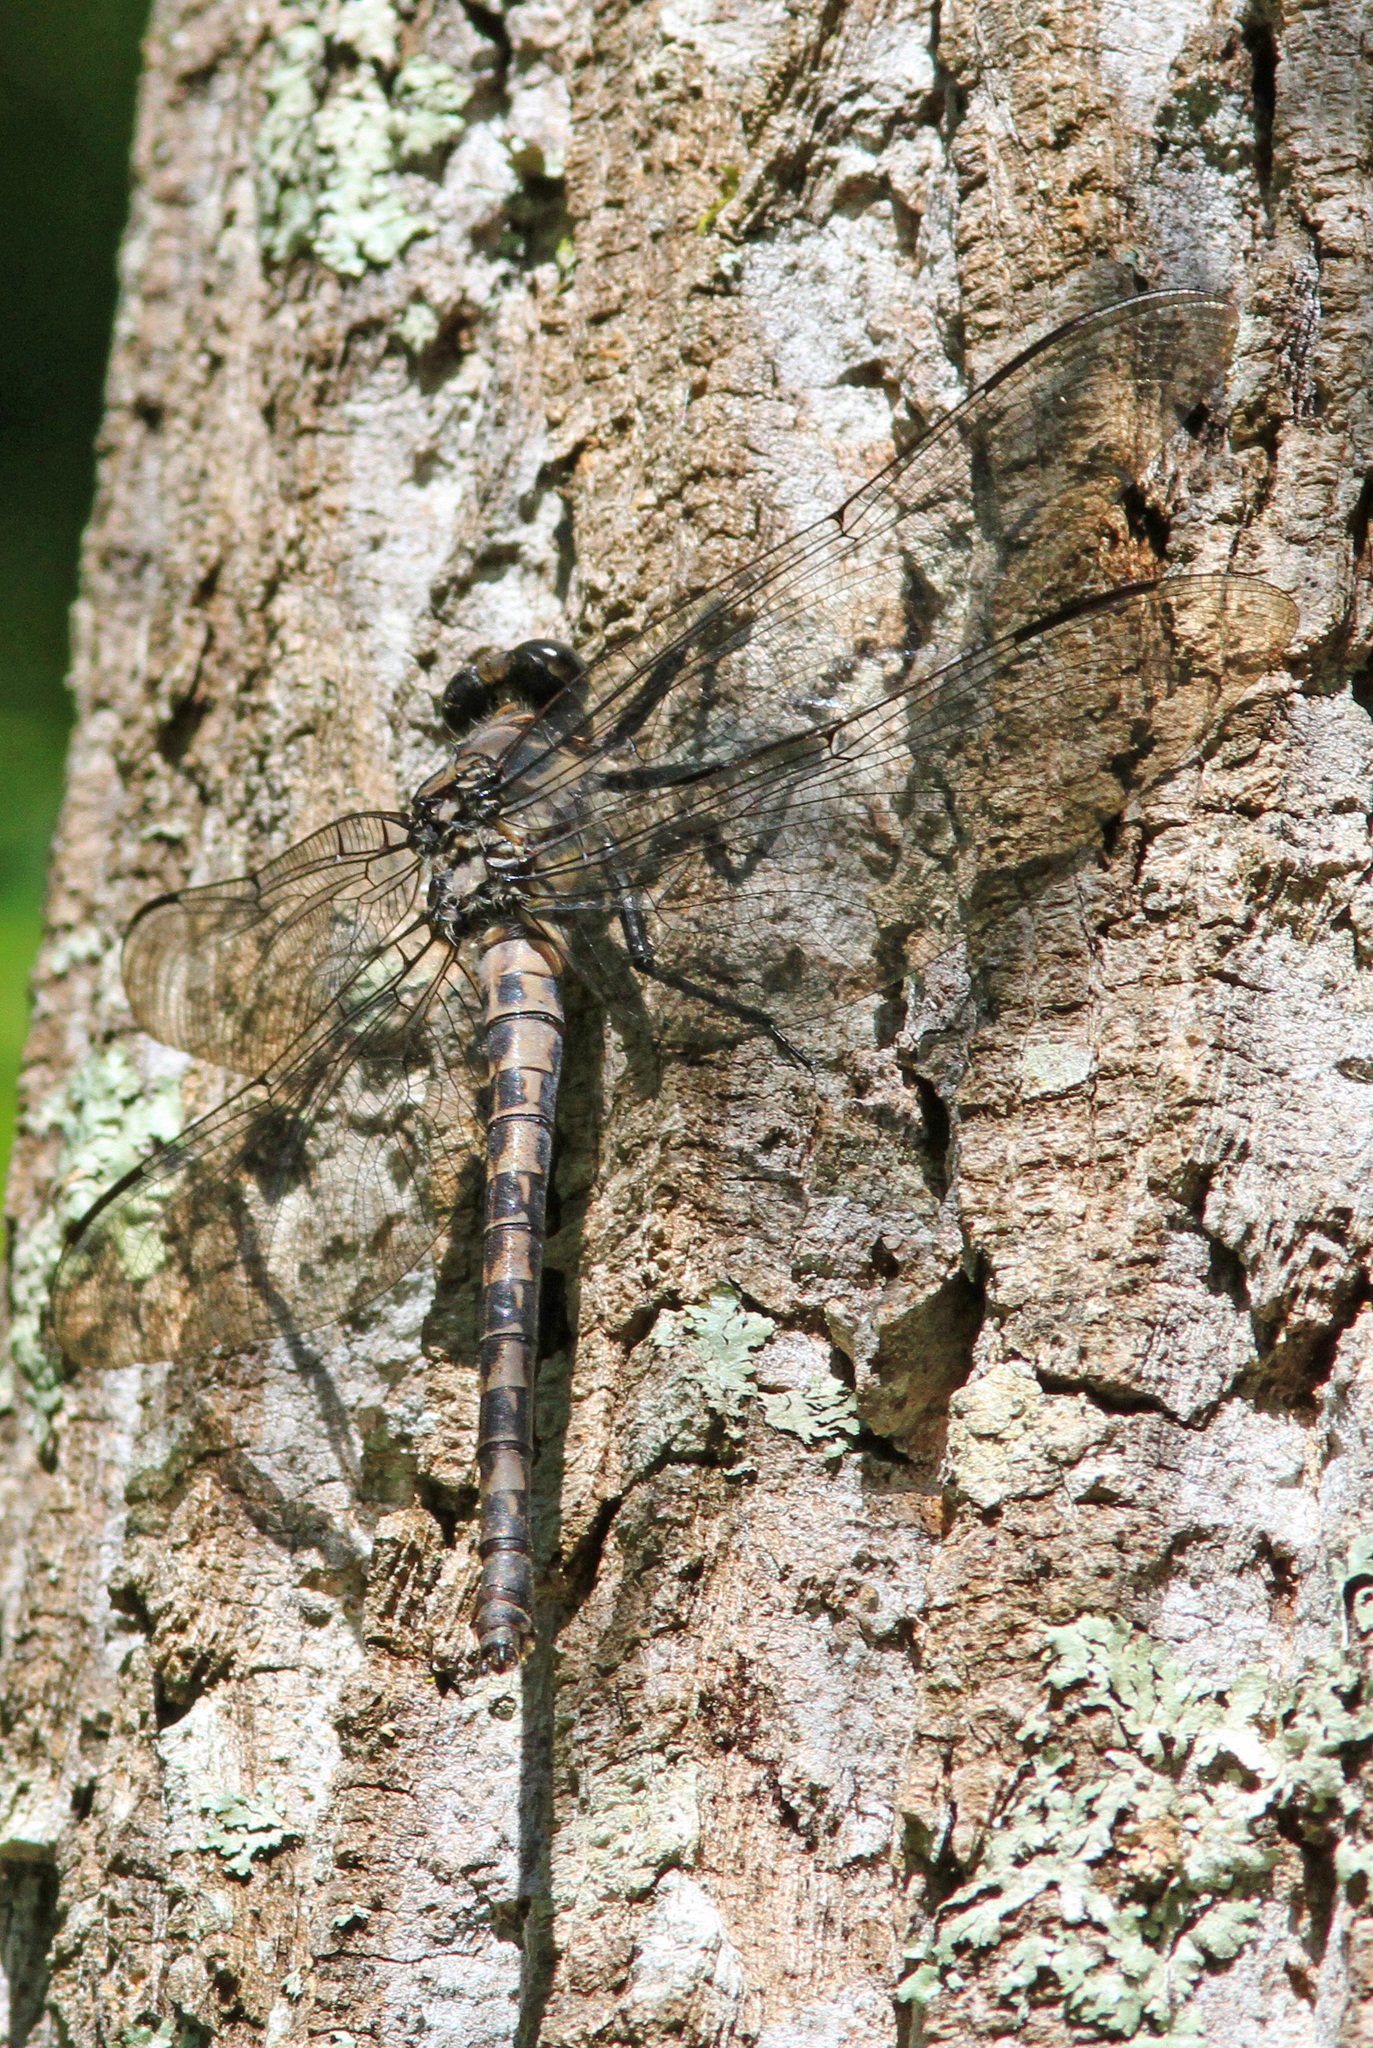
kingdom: Animalia
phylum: Arthropoda
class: Insecta
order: Odonata
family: Petaluridae
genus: Tachopteryx
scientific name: Tachopteryx thoreyi
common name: Gray petaltail
